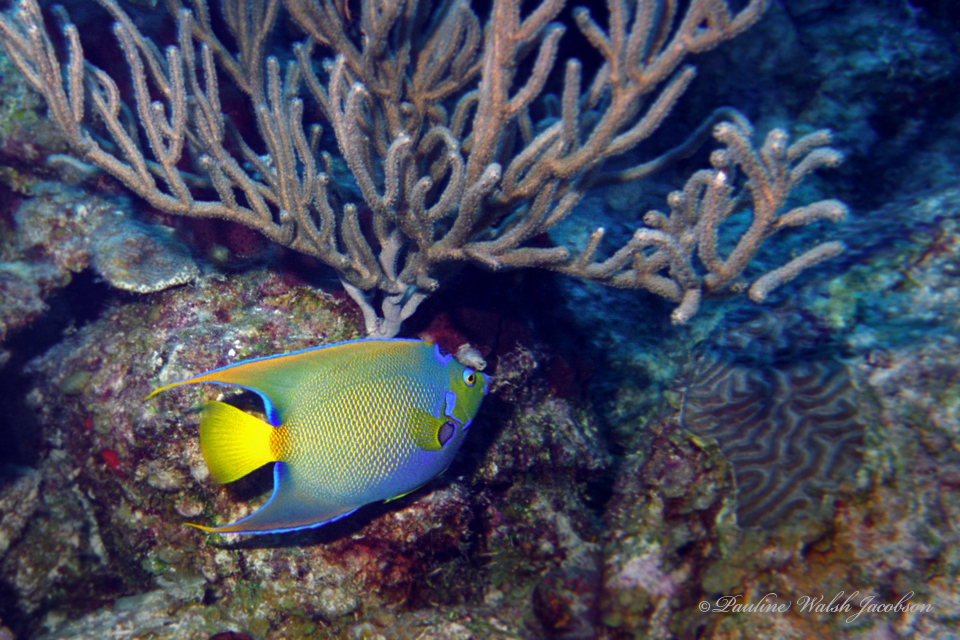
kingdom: Animalia
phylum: Chordata
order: Perciformes
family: Pomacanthidae
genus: Holacanthus
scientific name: Holacanthus ciliaris
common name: Queen angelfish
